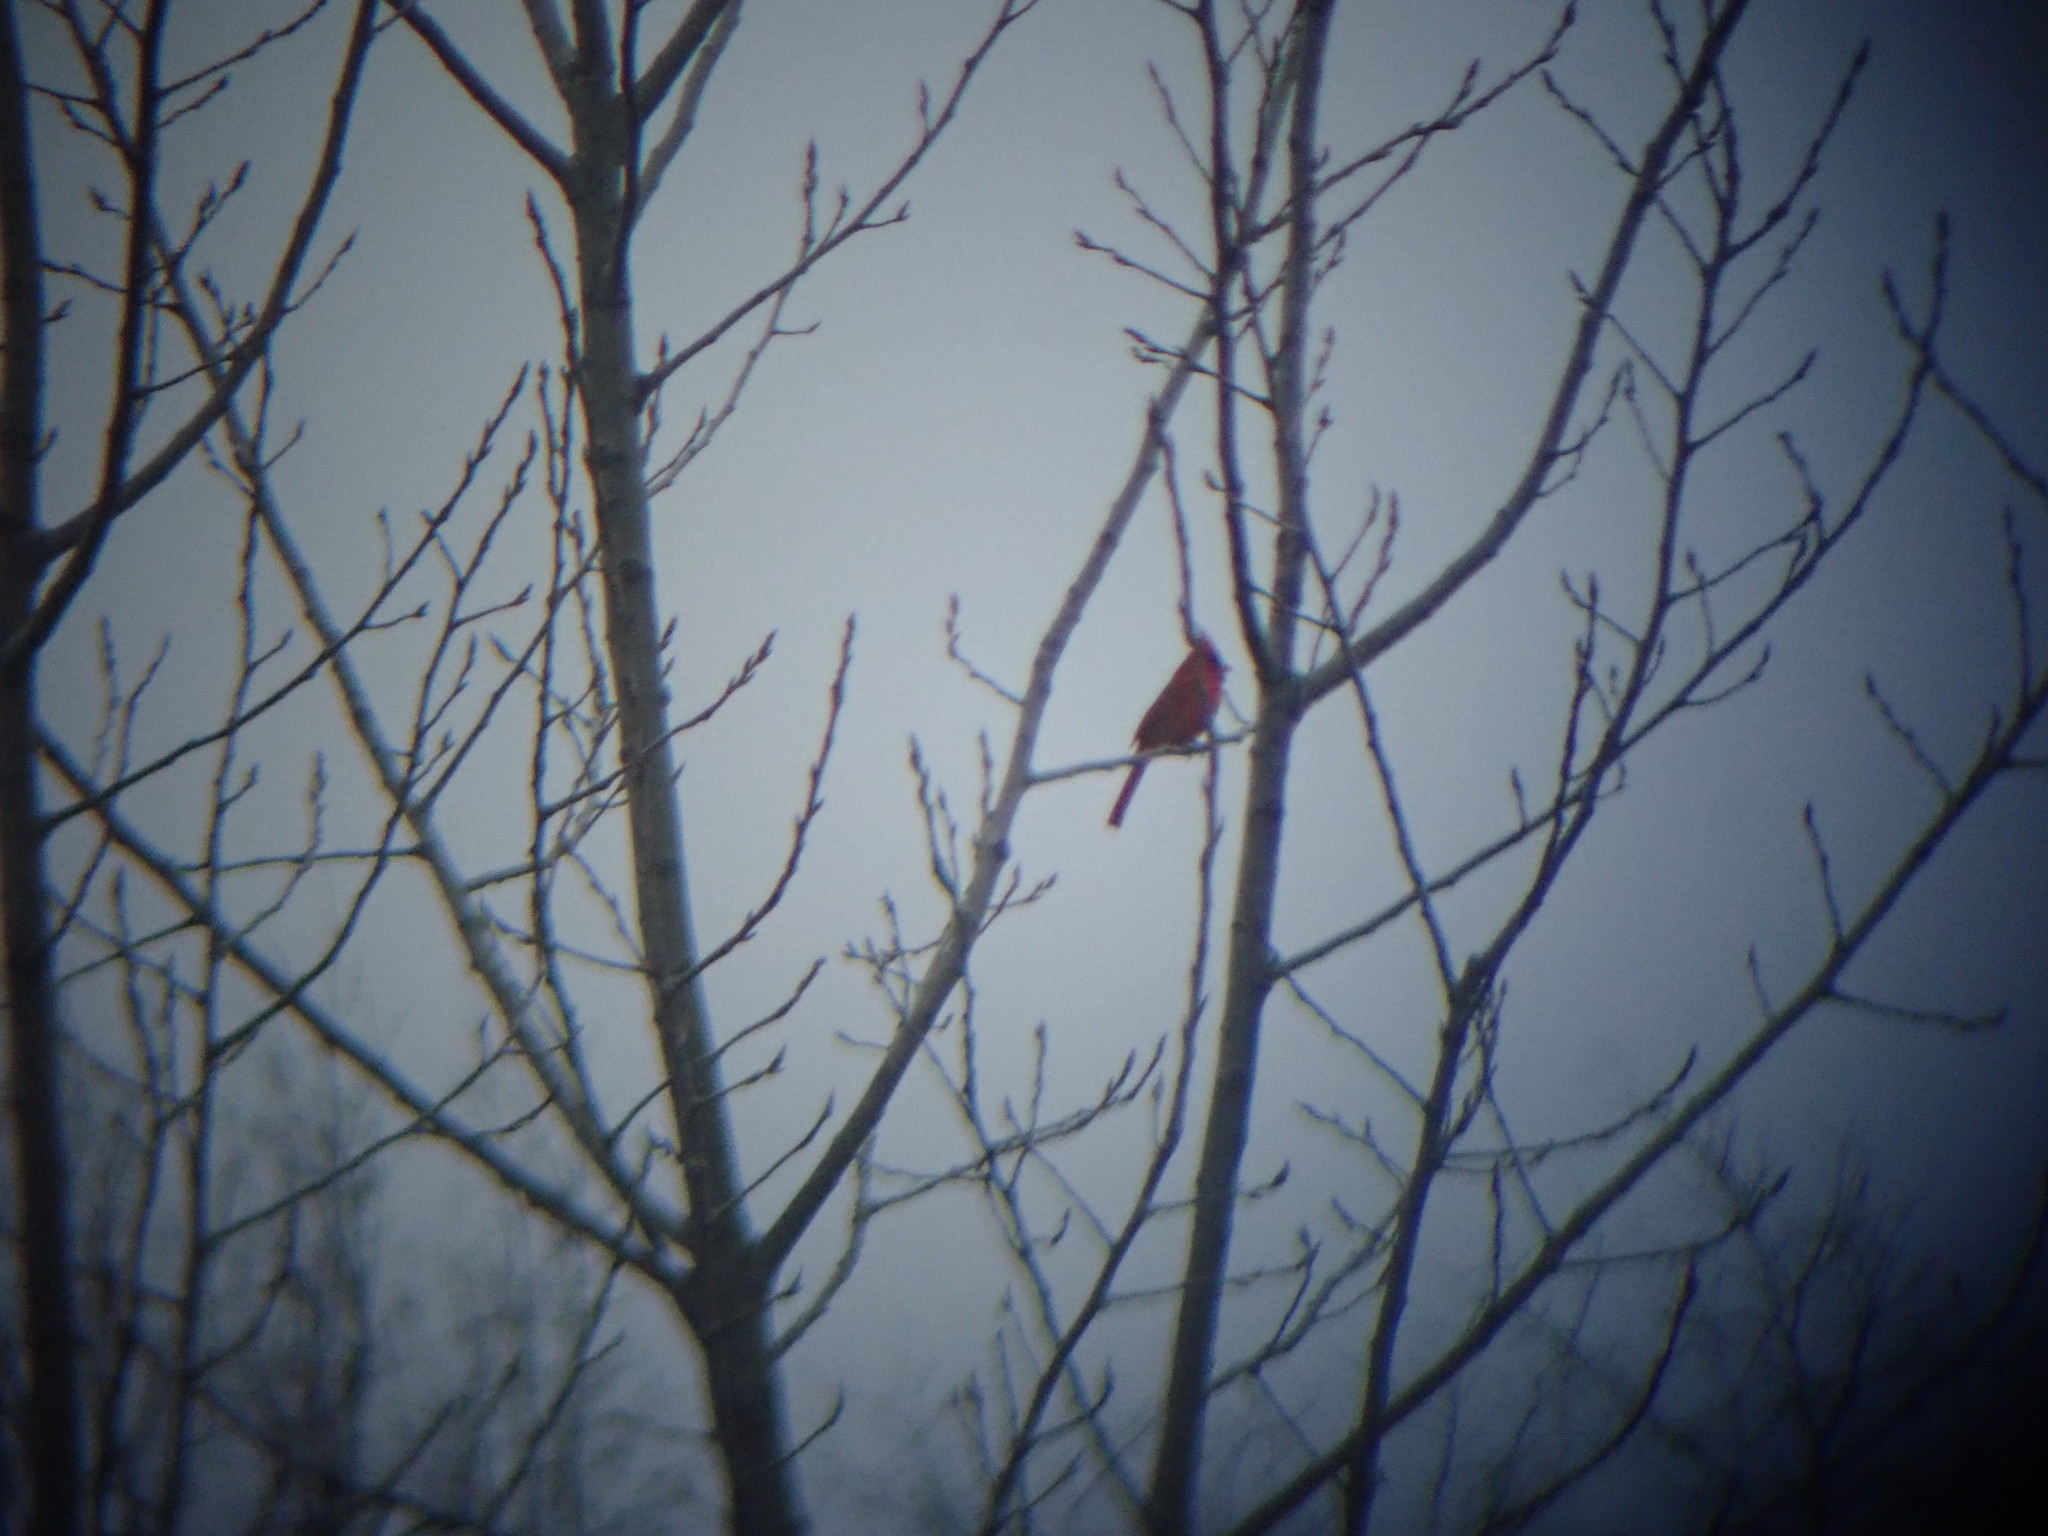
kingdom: Animalia
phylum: Chordata
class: Aves
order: Passeriformes
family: Cardinalidae
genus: Cardinalis
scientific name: Cardinalis cardinalis
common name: Northern cardinal
